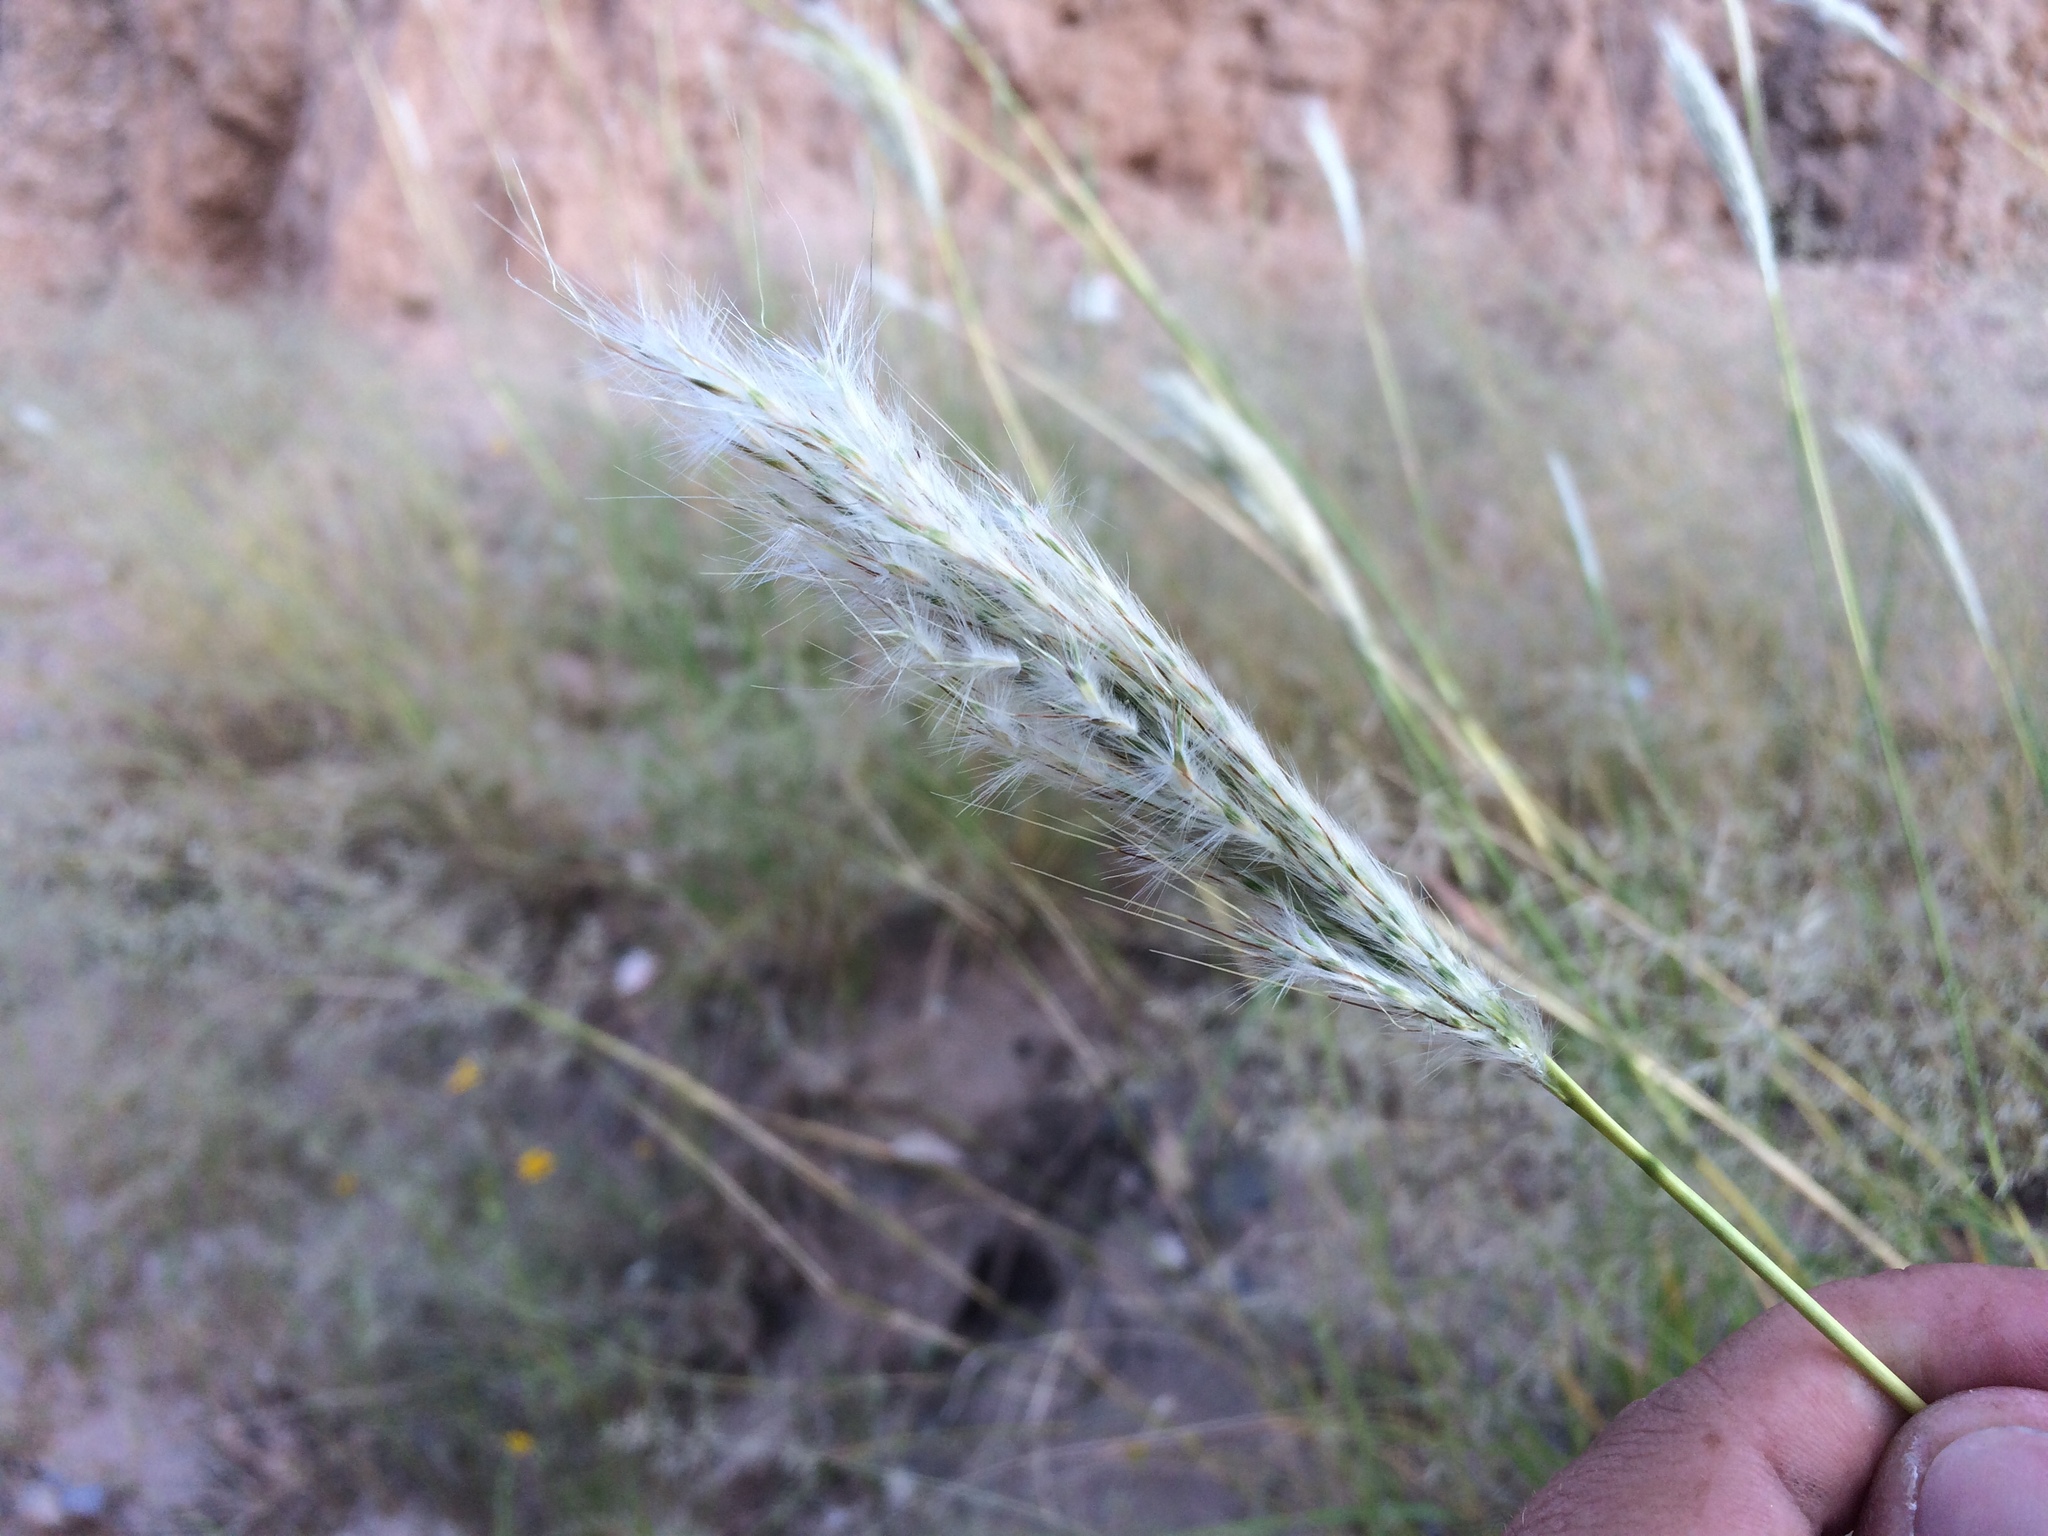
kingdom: Plantae
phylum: Tracheophyta
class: Liliopsida
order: Poales
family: Poaceae
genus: Bothriochloa
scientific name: Bothriochloa barbinodis
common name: Cane bluestem
